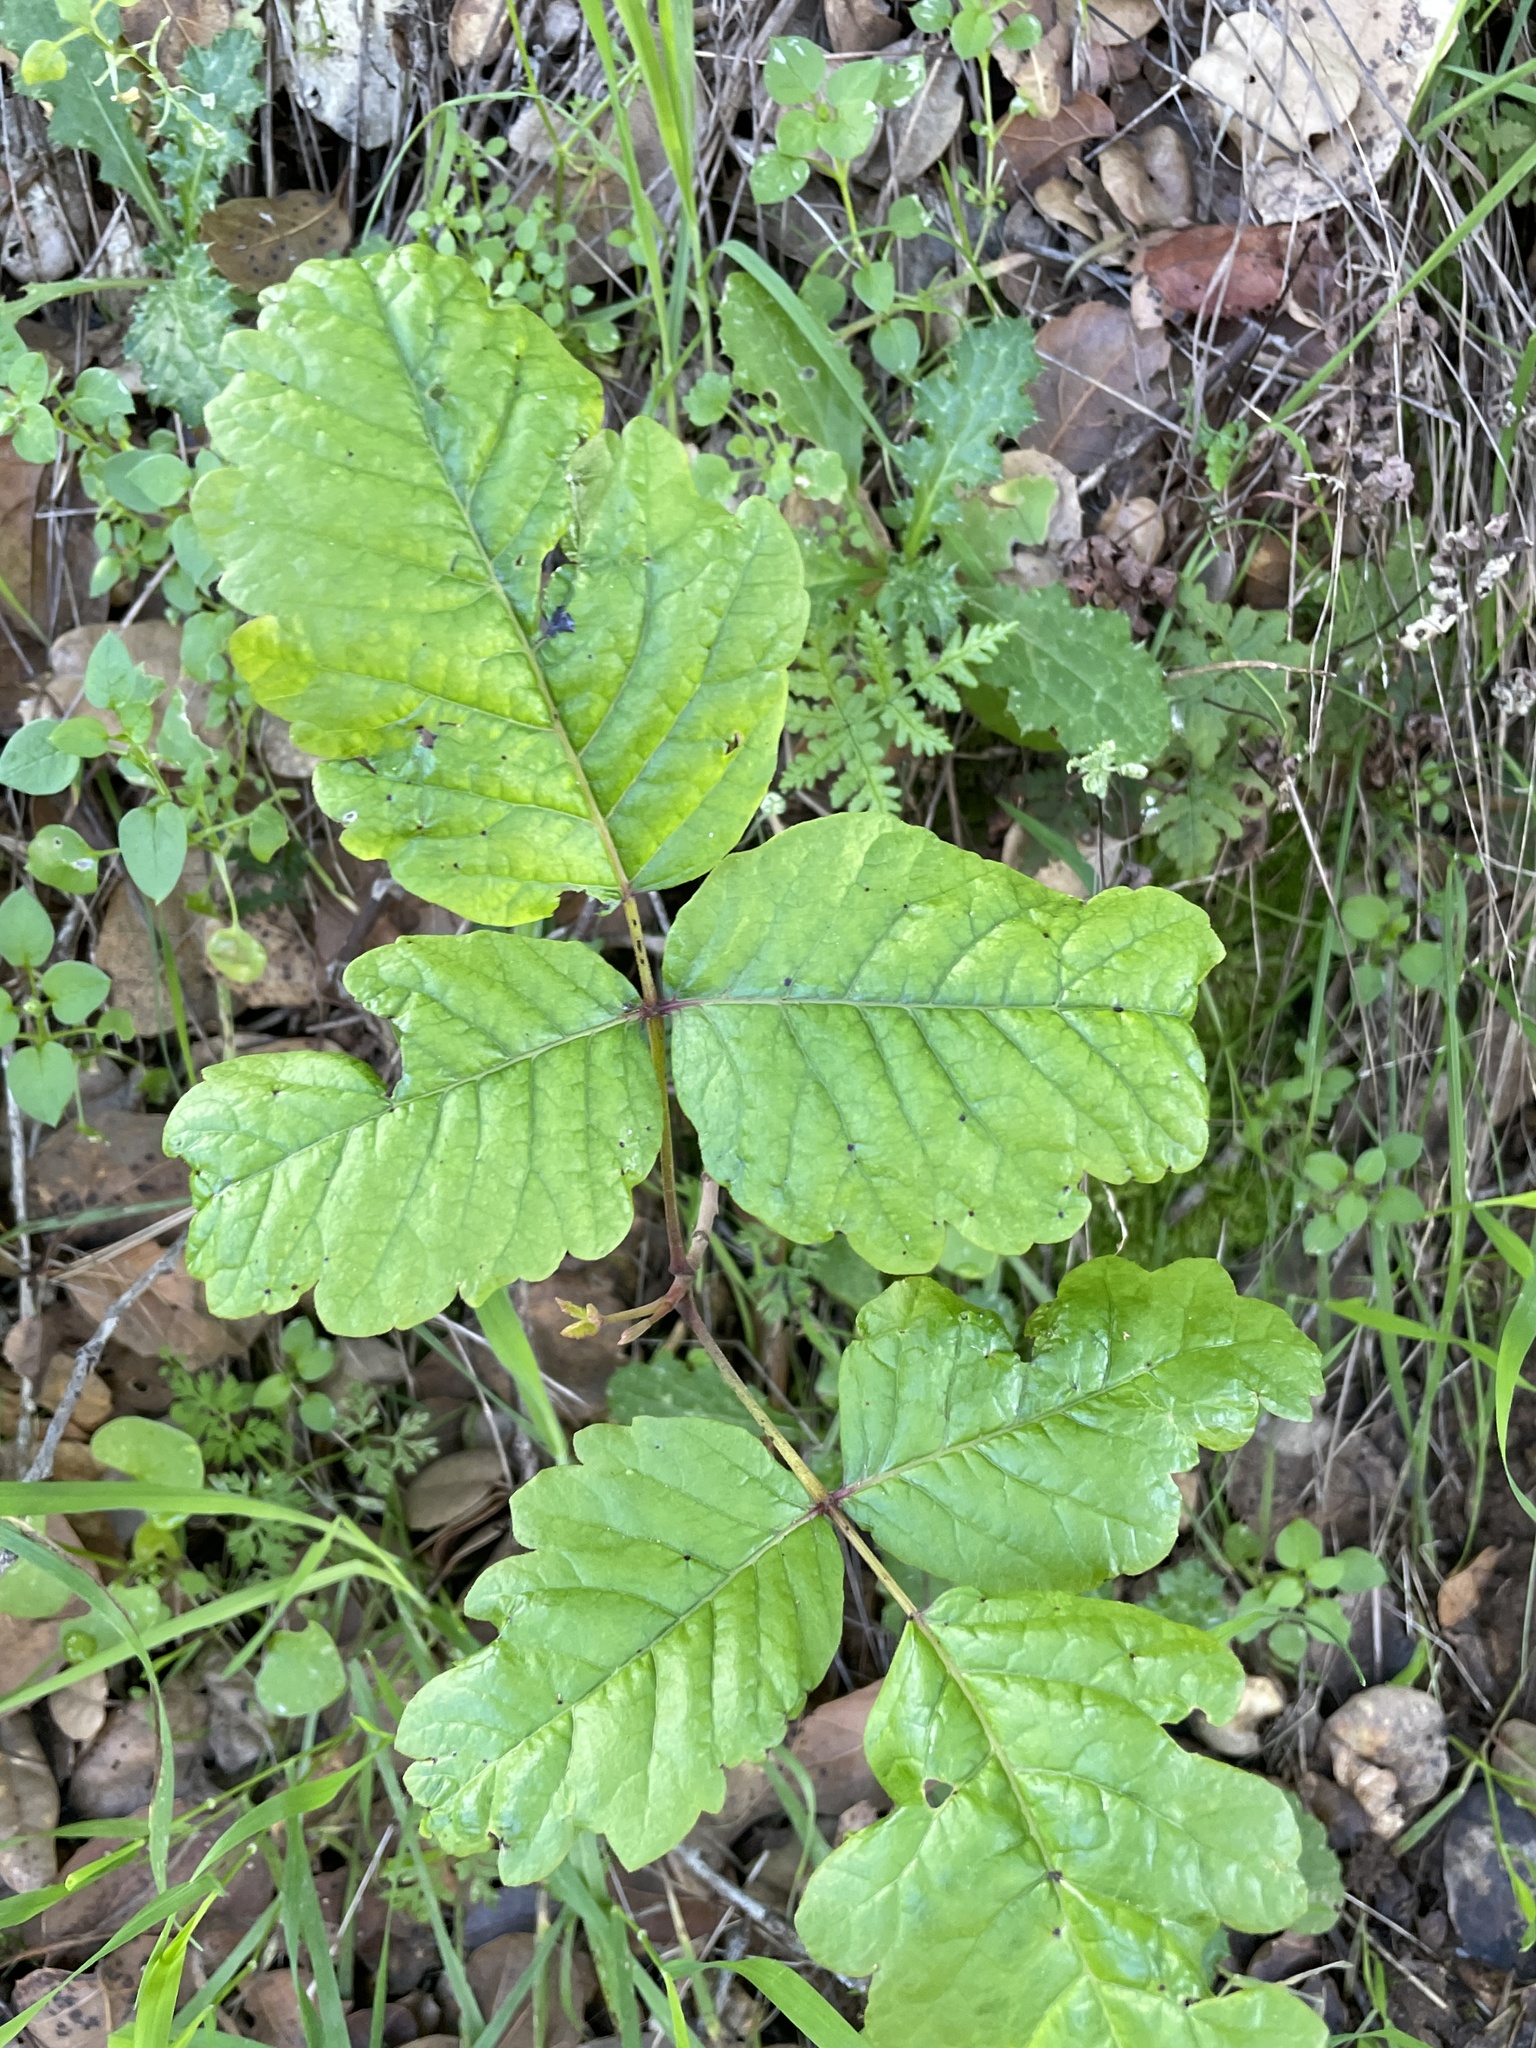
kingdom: Plantae
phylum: Tracheophyta
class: Magnoliopsida
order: Sapindales
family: Anacardiaceae
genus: Toxicodendron
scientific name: Toxicodendron diversilobum
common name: Pacific poison-oak
